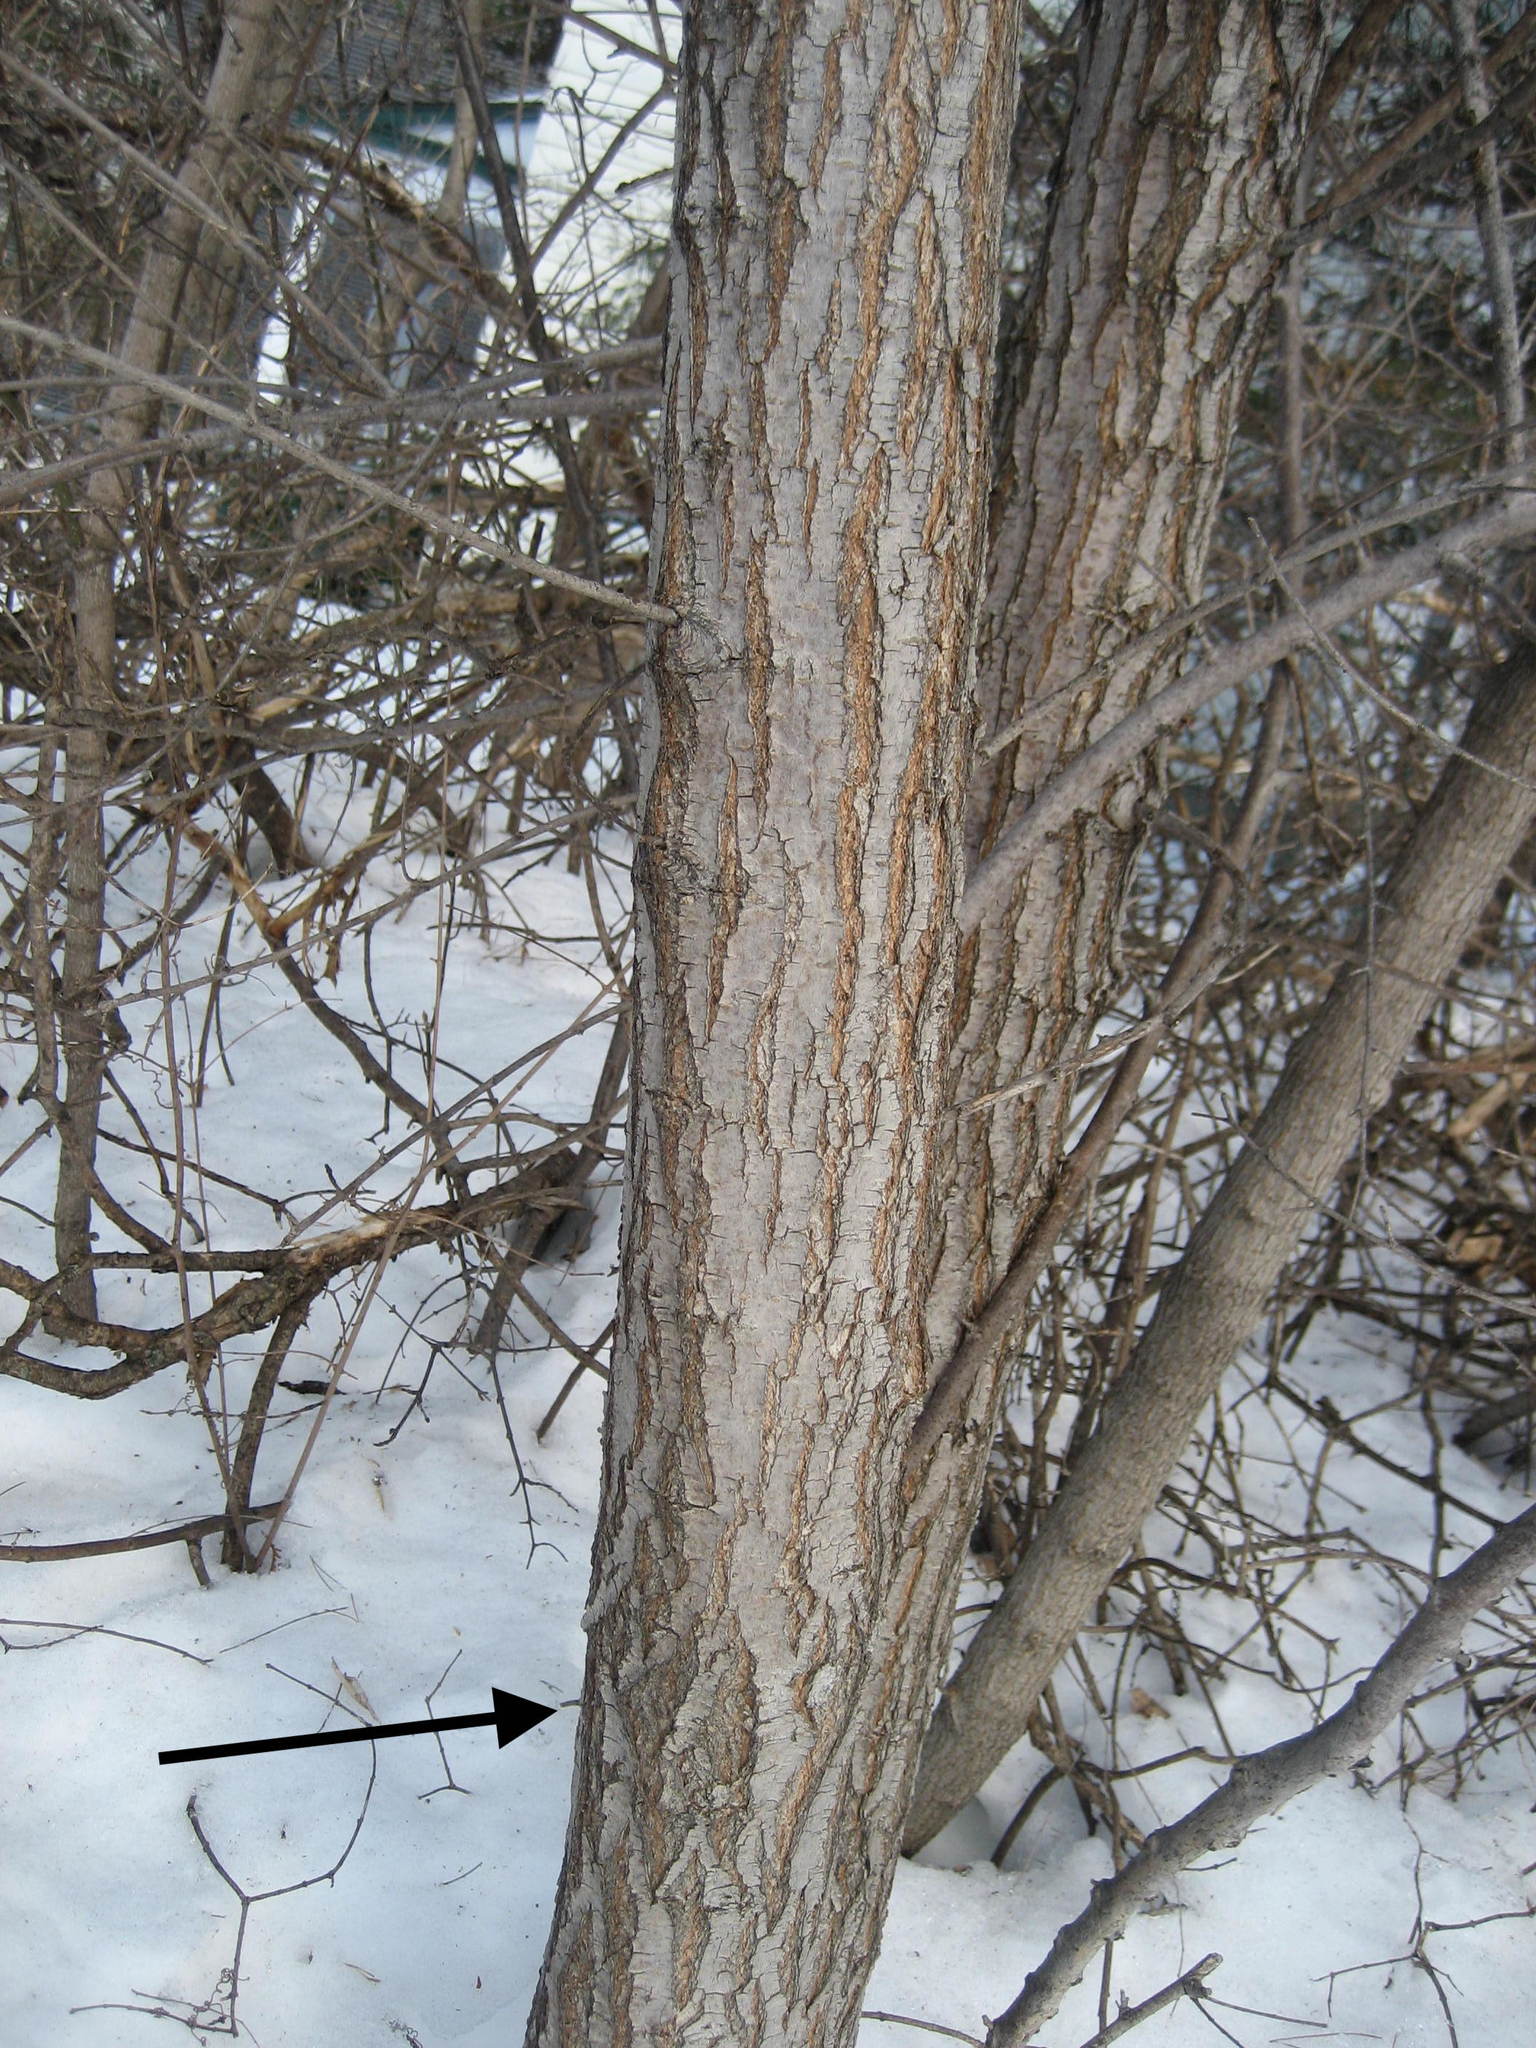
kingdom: Plantae
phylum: Tracheophyta
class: Magnoliopsida
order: Rosales
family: Ulmaceae
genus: Ulmus
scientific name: Ulmus pumila
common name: Siberian elm
